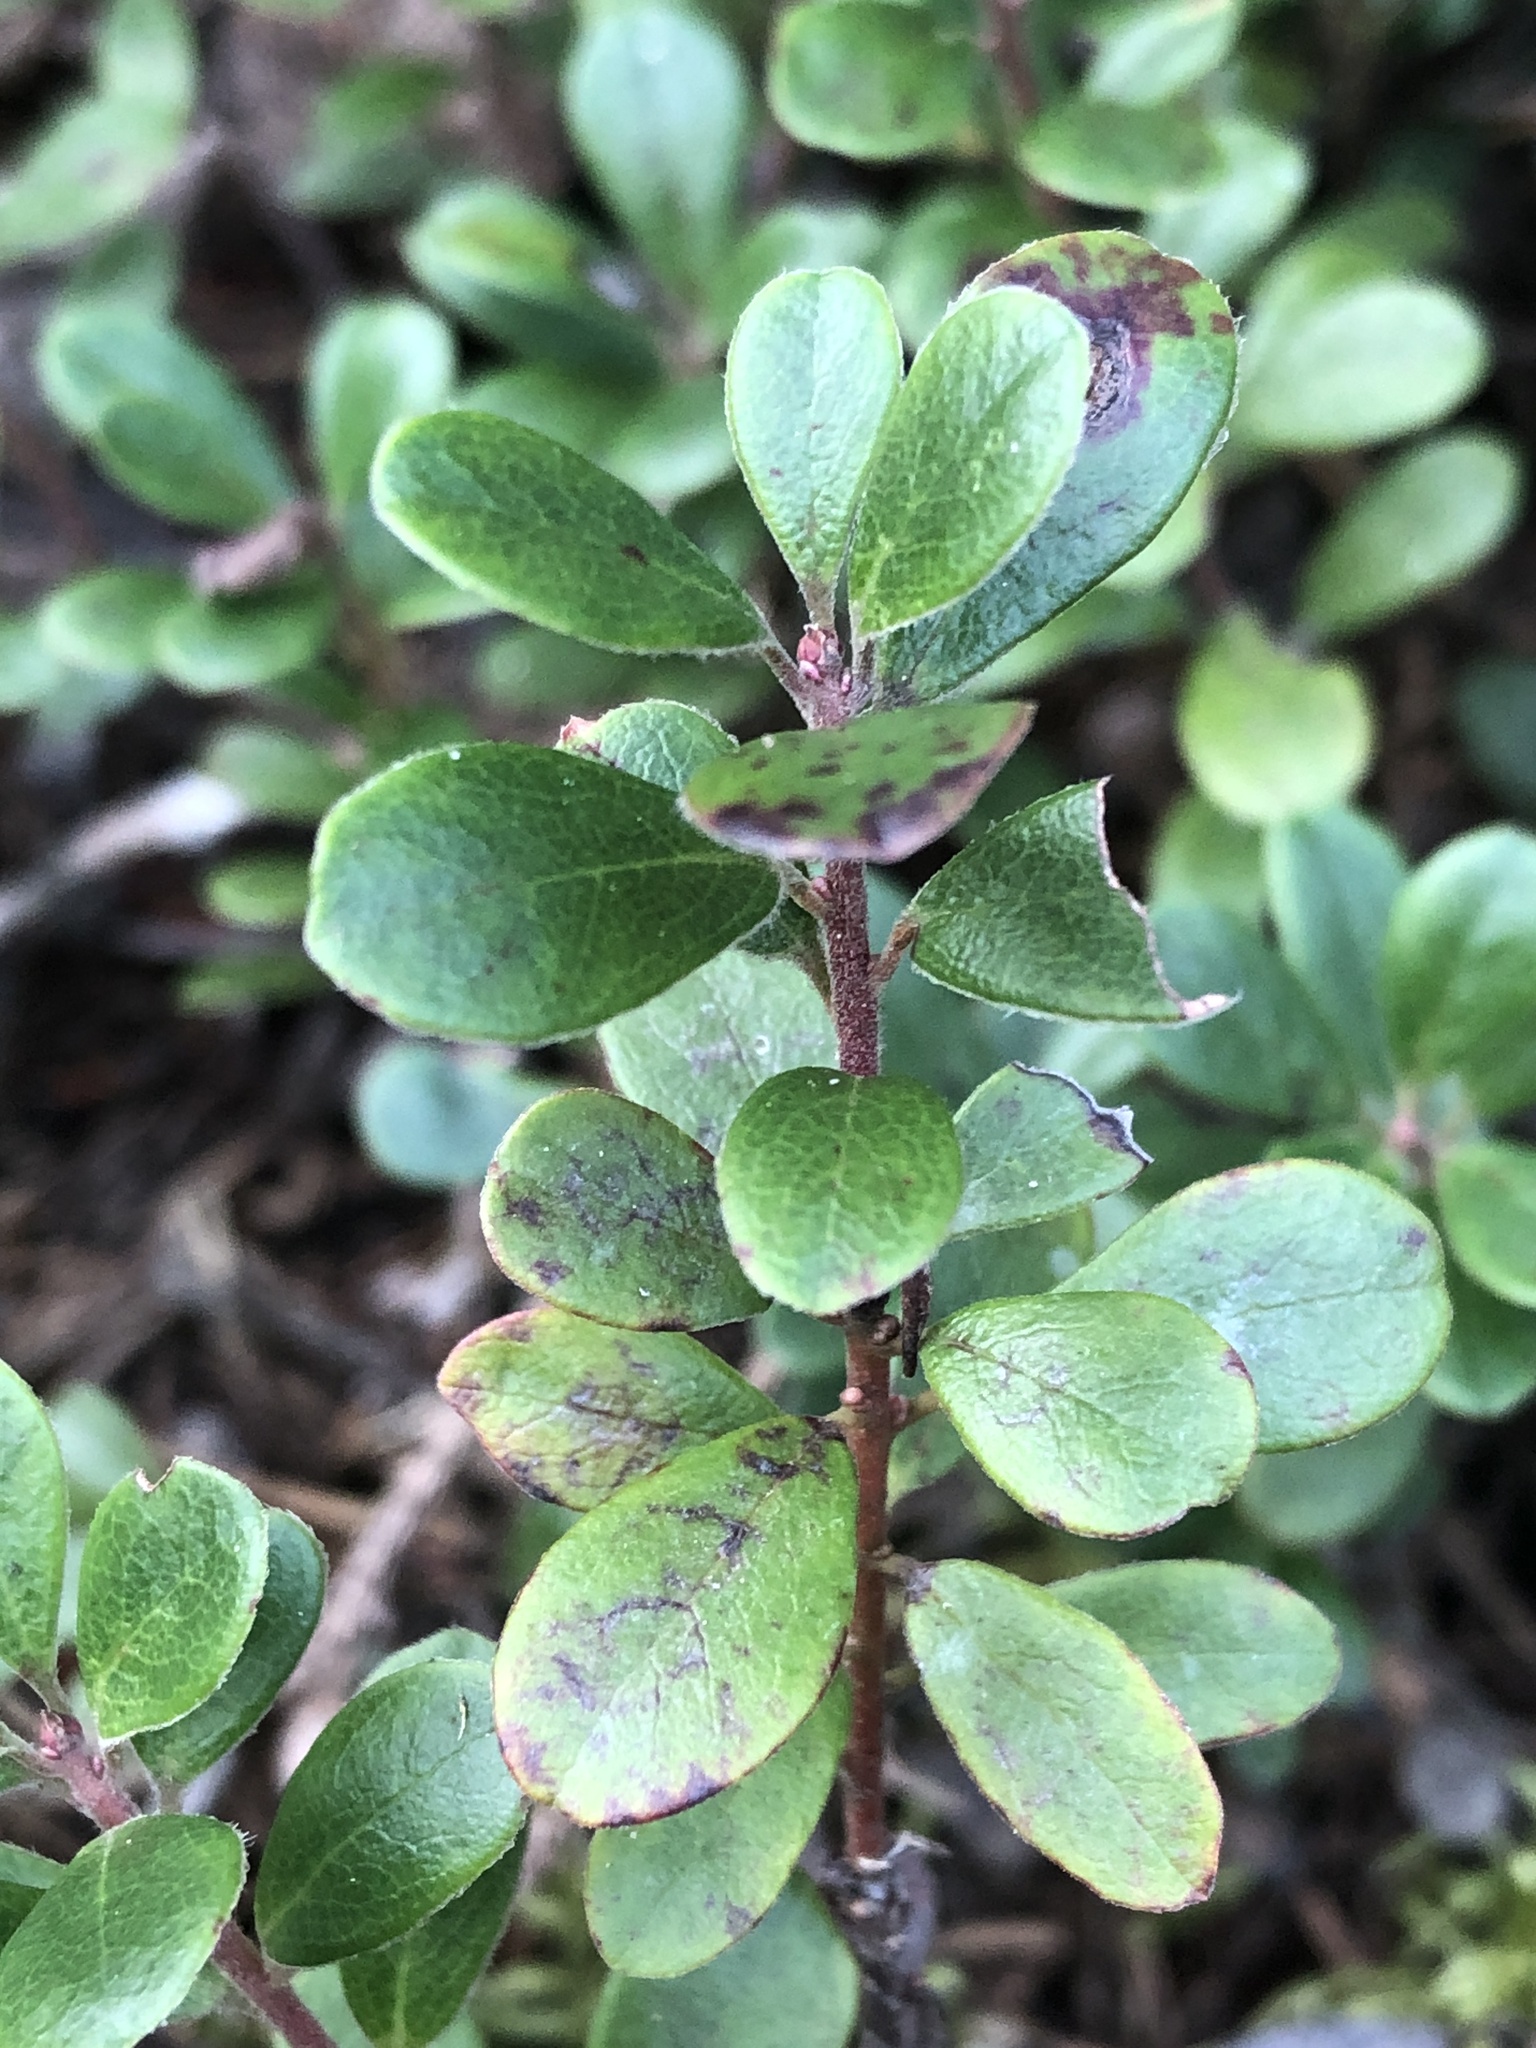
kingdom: Plantae
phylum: Tracheophyta
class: Magnoliopsida
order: Ericales
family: Ericaceae
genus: Arctostaphylos
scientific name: Arctostaphylos uva-ursi
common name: Bearberry
